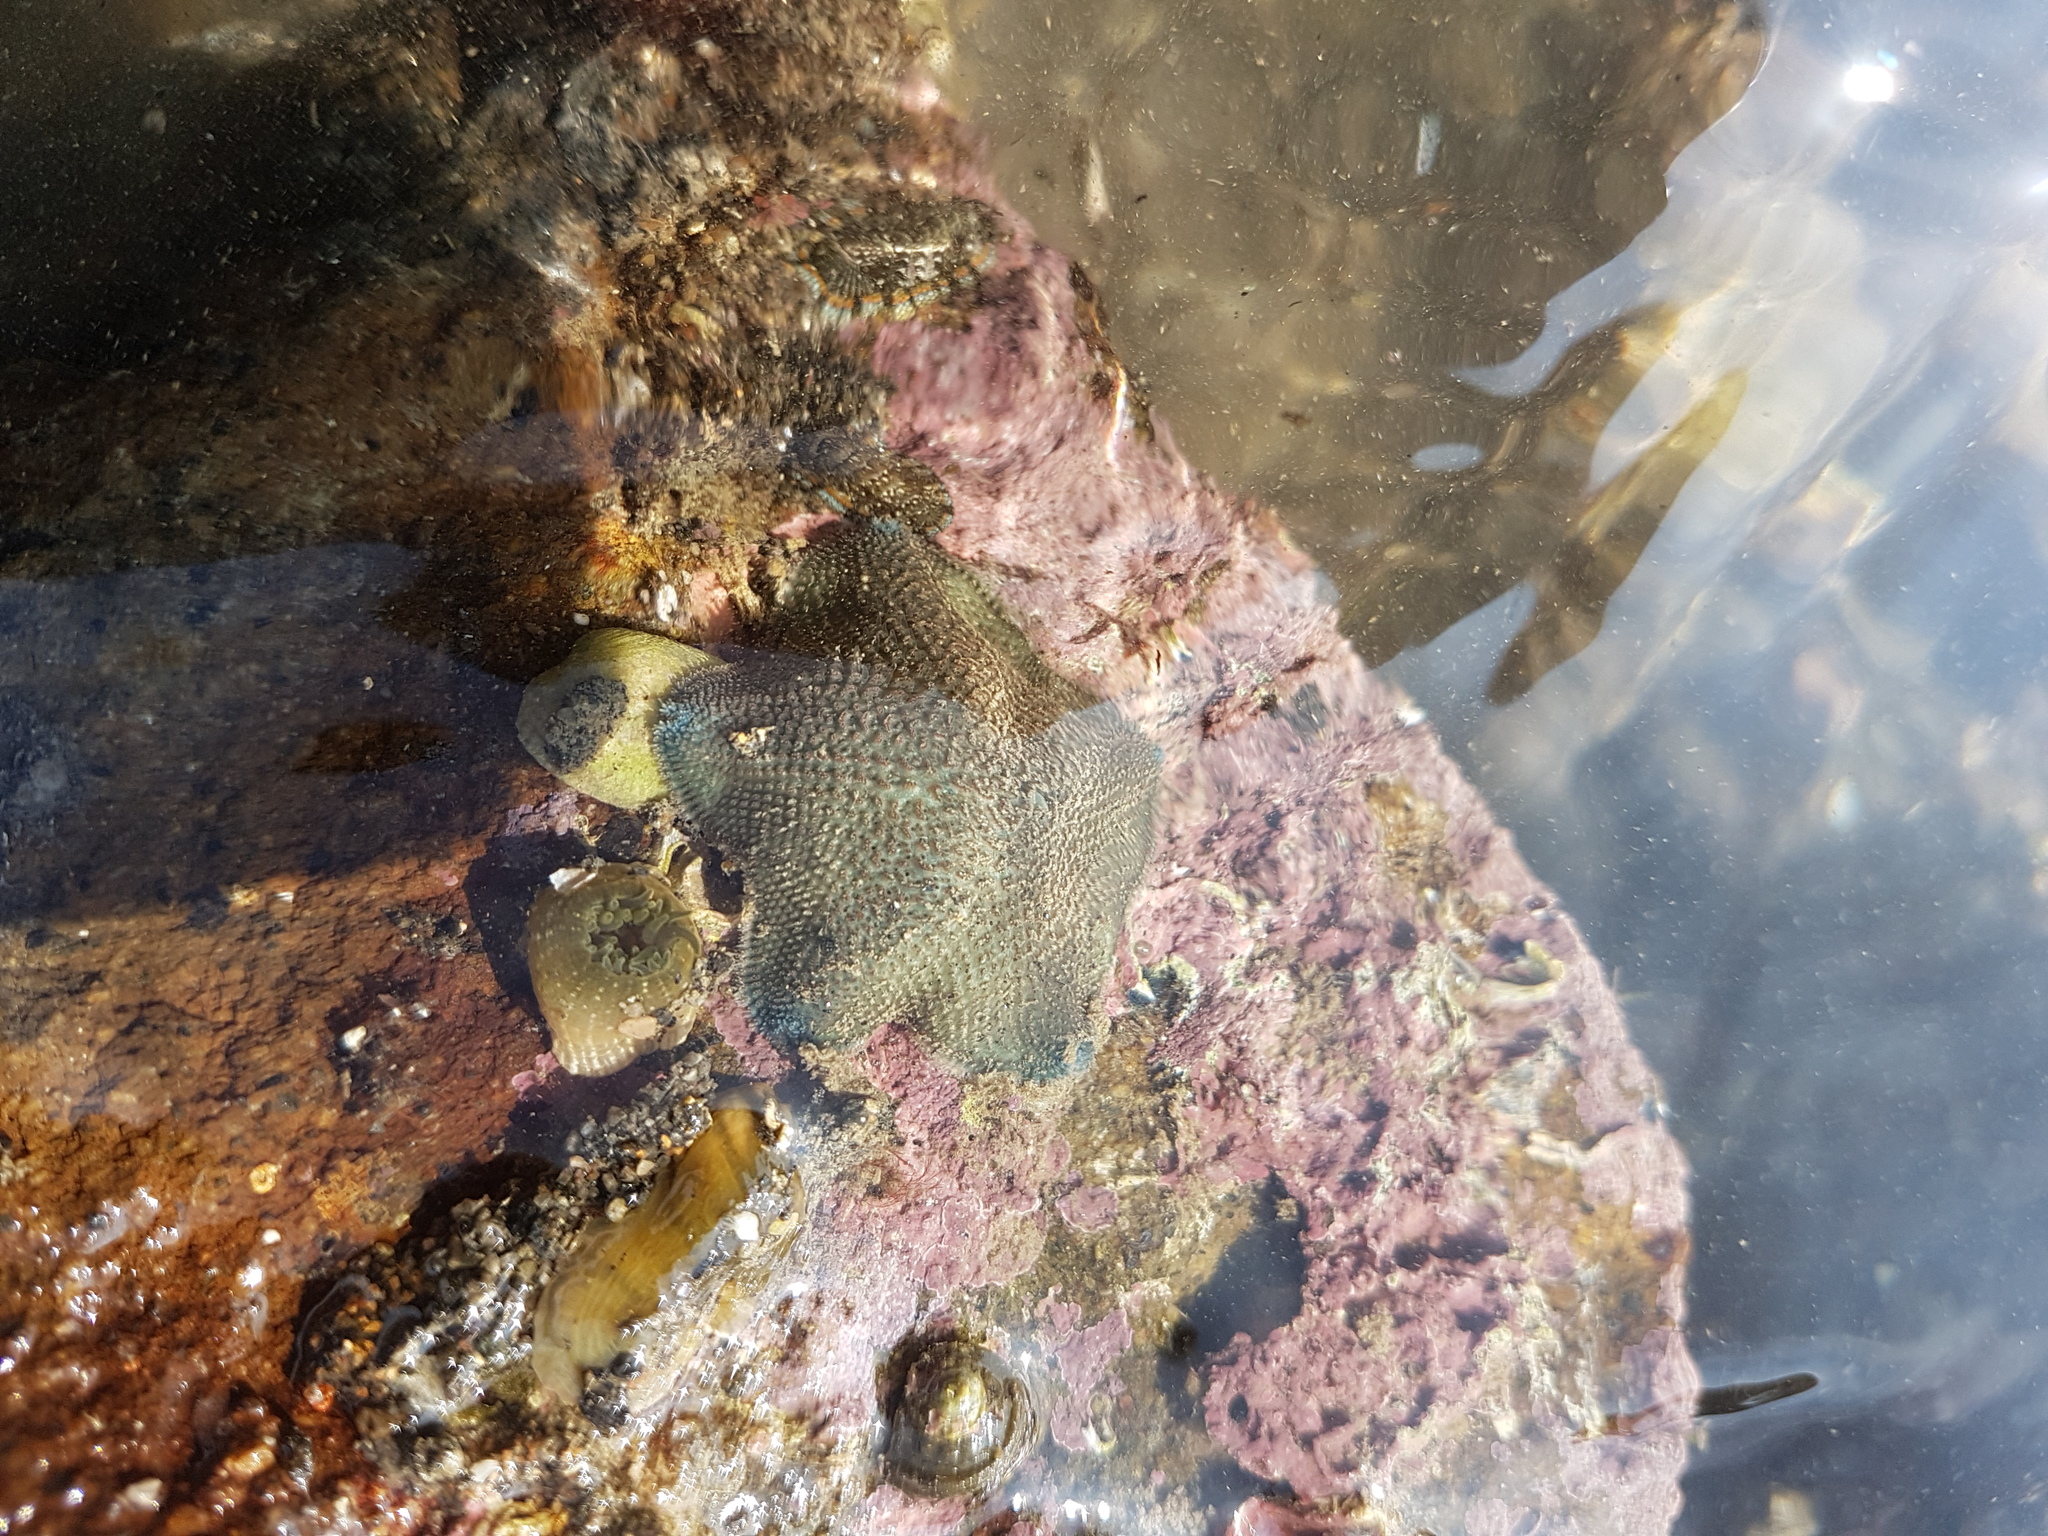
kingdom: Animalia
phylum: Echinodermata
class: Asteroidea
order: Valvatida
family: Asterinidae
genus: Patiriella
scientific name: Patiriella regularis
